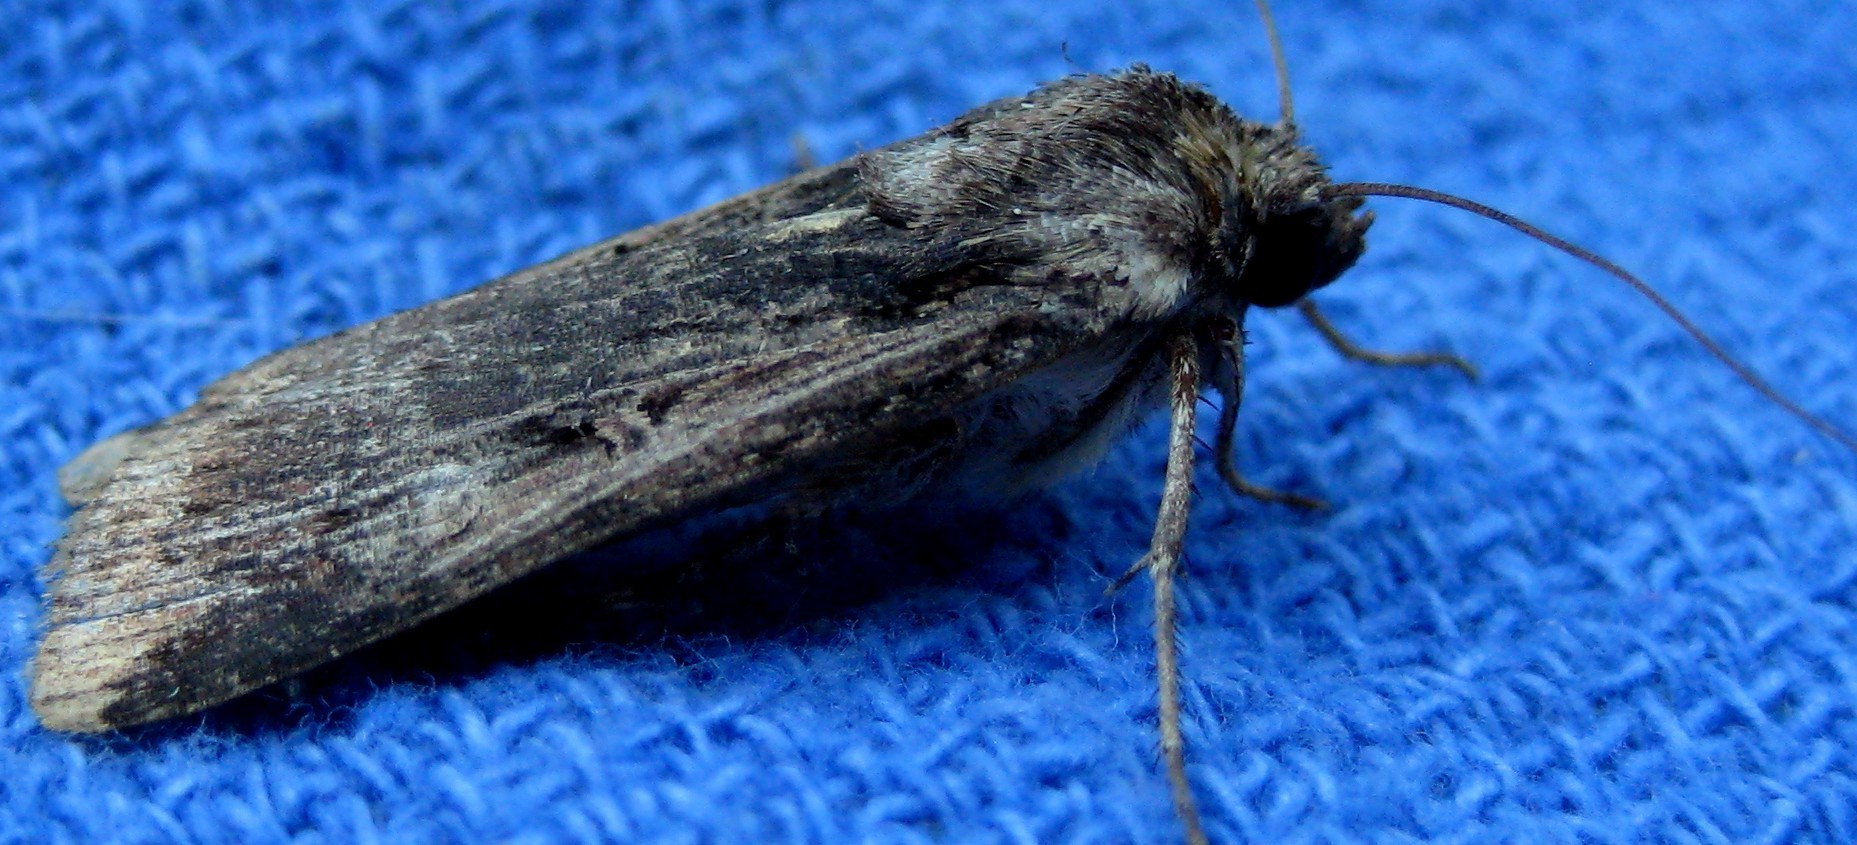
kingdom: Animalia
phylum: Arthropoda
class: Insecta
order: Lepidoptera
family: Noctuidae
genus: Feltia
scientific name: Feltia subterranea
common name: Granulate cutworm
